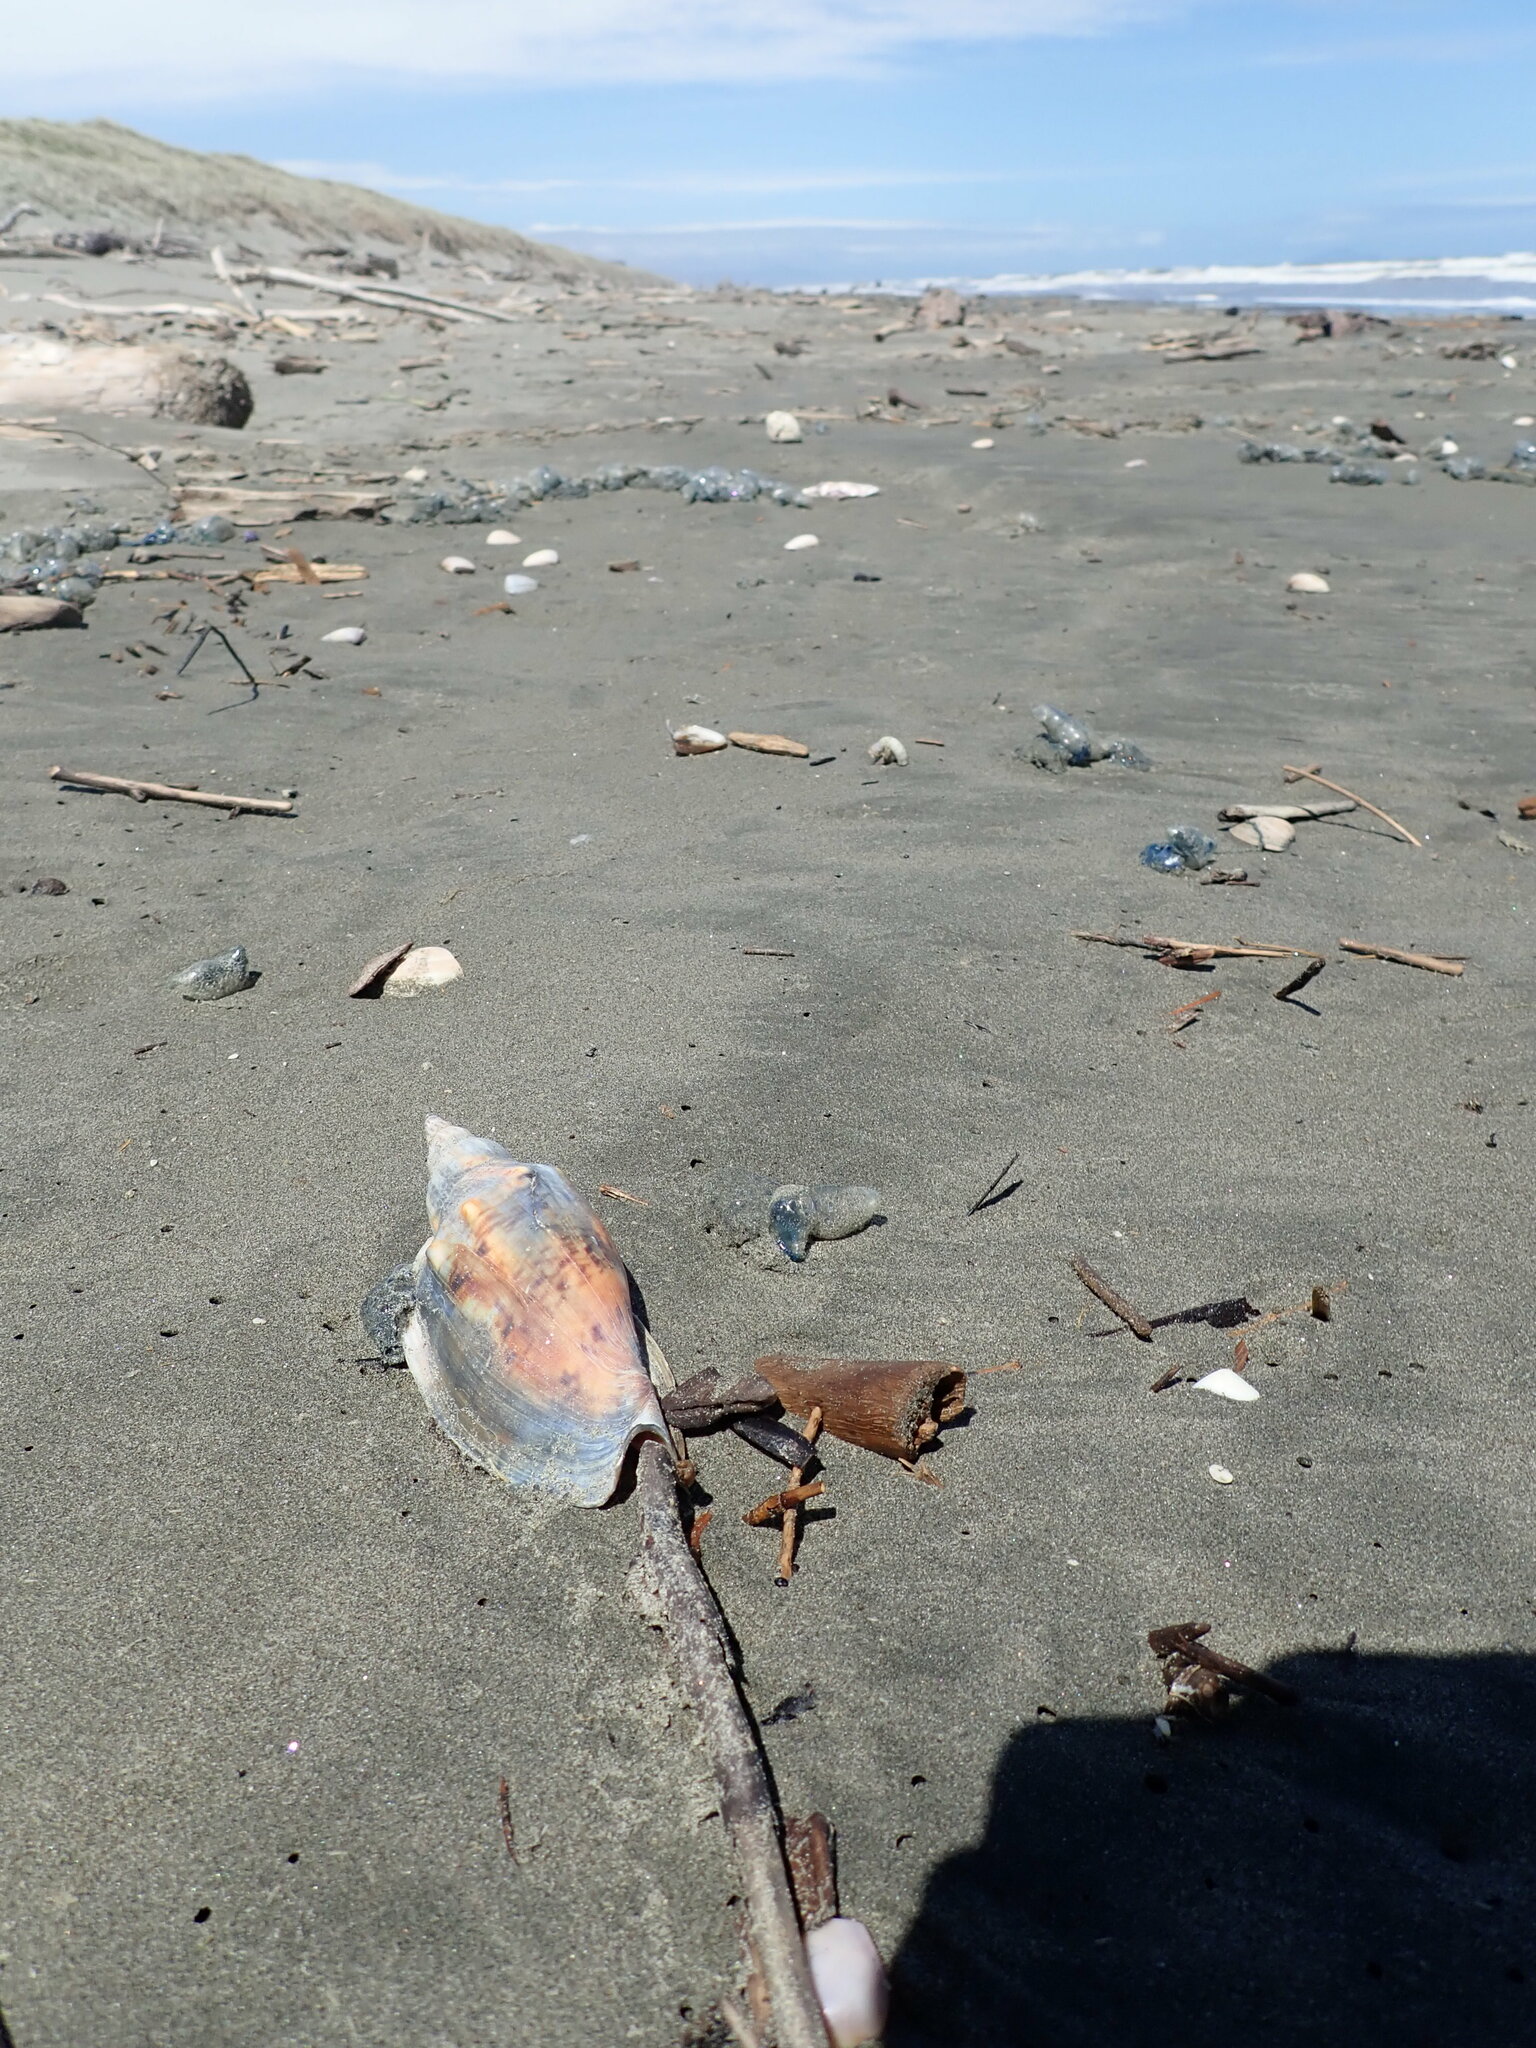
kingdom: Animalia
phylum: Mollusca
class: Gastropoda
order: Neogastropoda
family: Volutidae
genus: Alcithoe
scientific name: Alcithoe arabica
